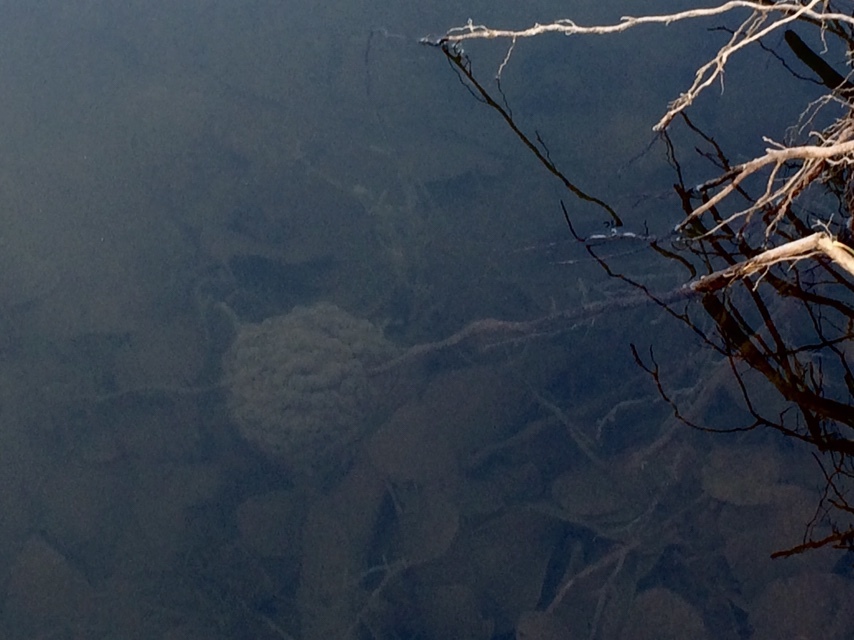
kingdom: Animalia
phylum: Chordata
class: Amphibia
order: Anura
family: Ranidae
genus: Rana
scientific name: Rana aurora
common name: Red-legged frog
